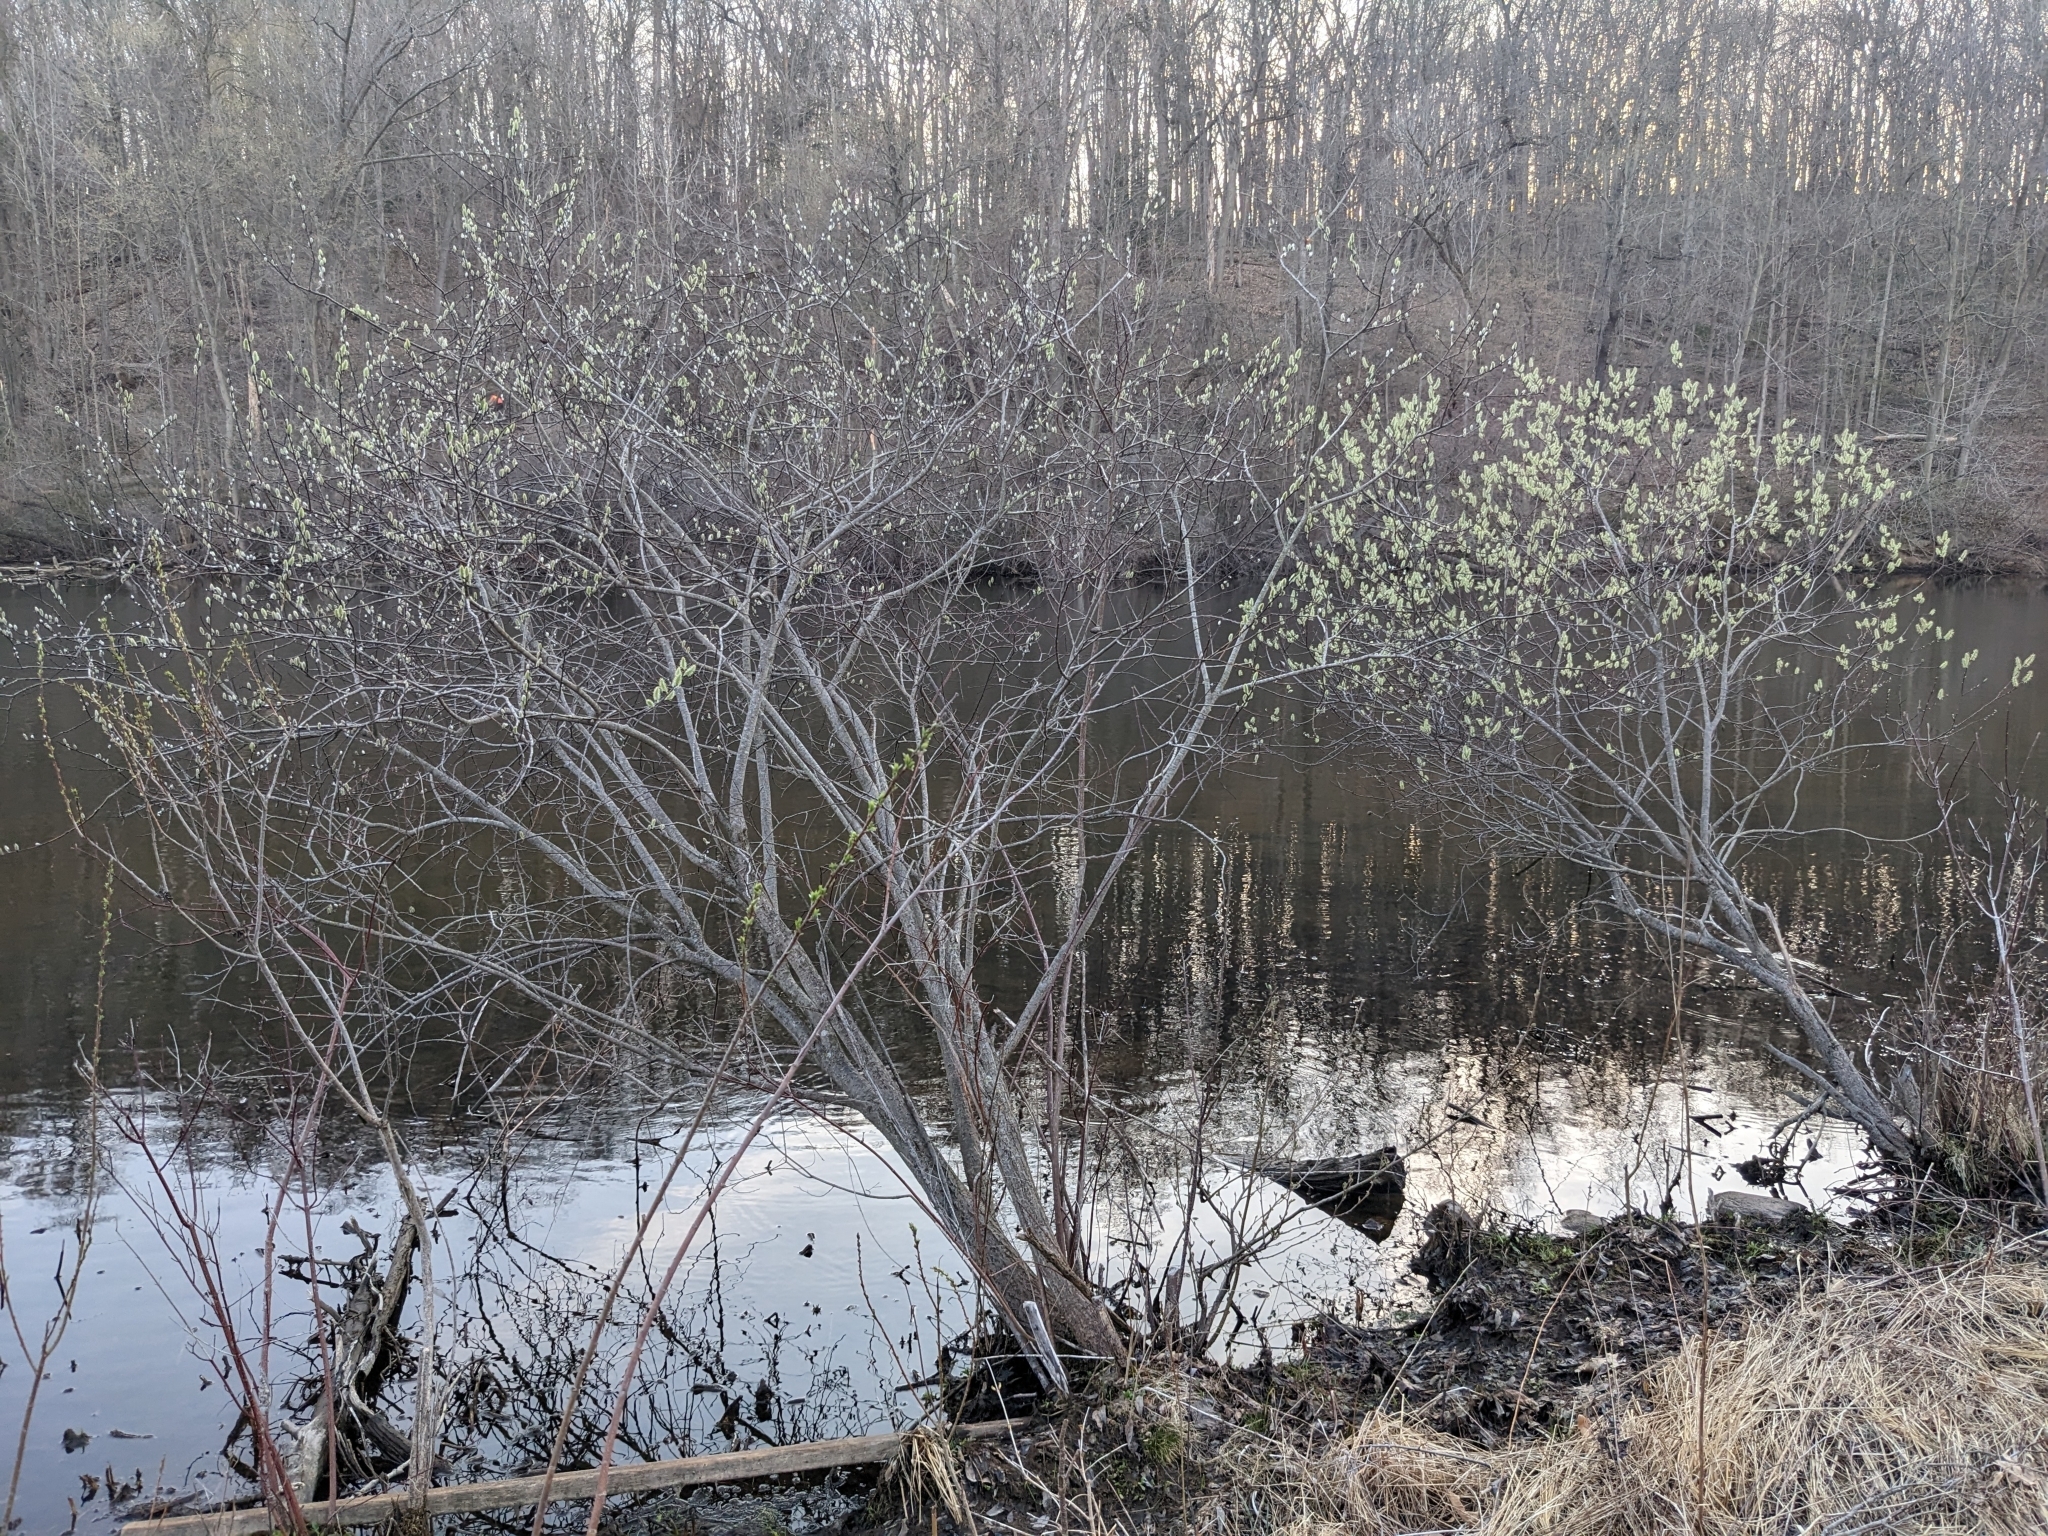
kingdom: Plantae
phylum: Tracheophyta
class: Magnoliopsida
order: Malpighiales
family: Salicaceae
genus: Salix
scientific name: Salix discolor
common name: Glaucous willow
